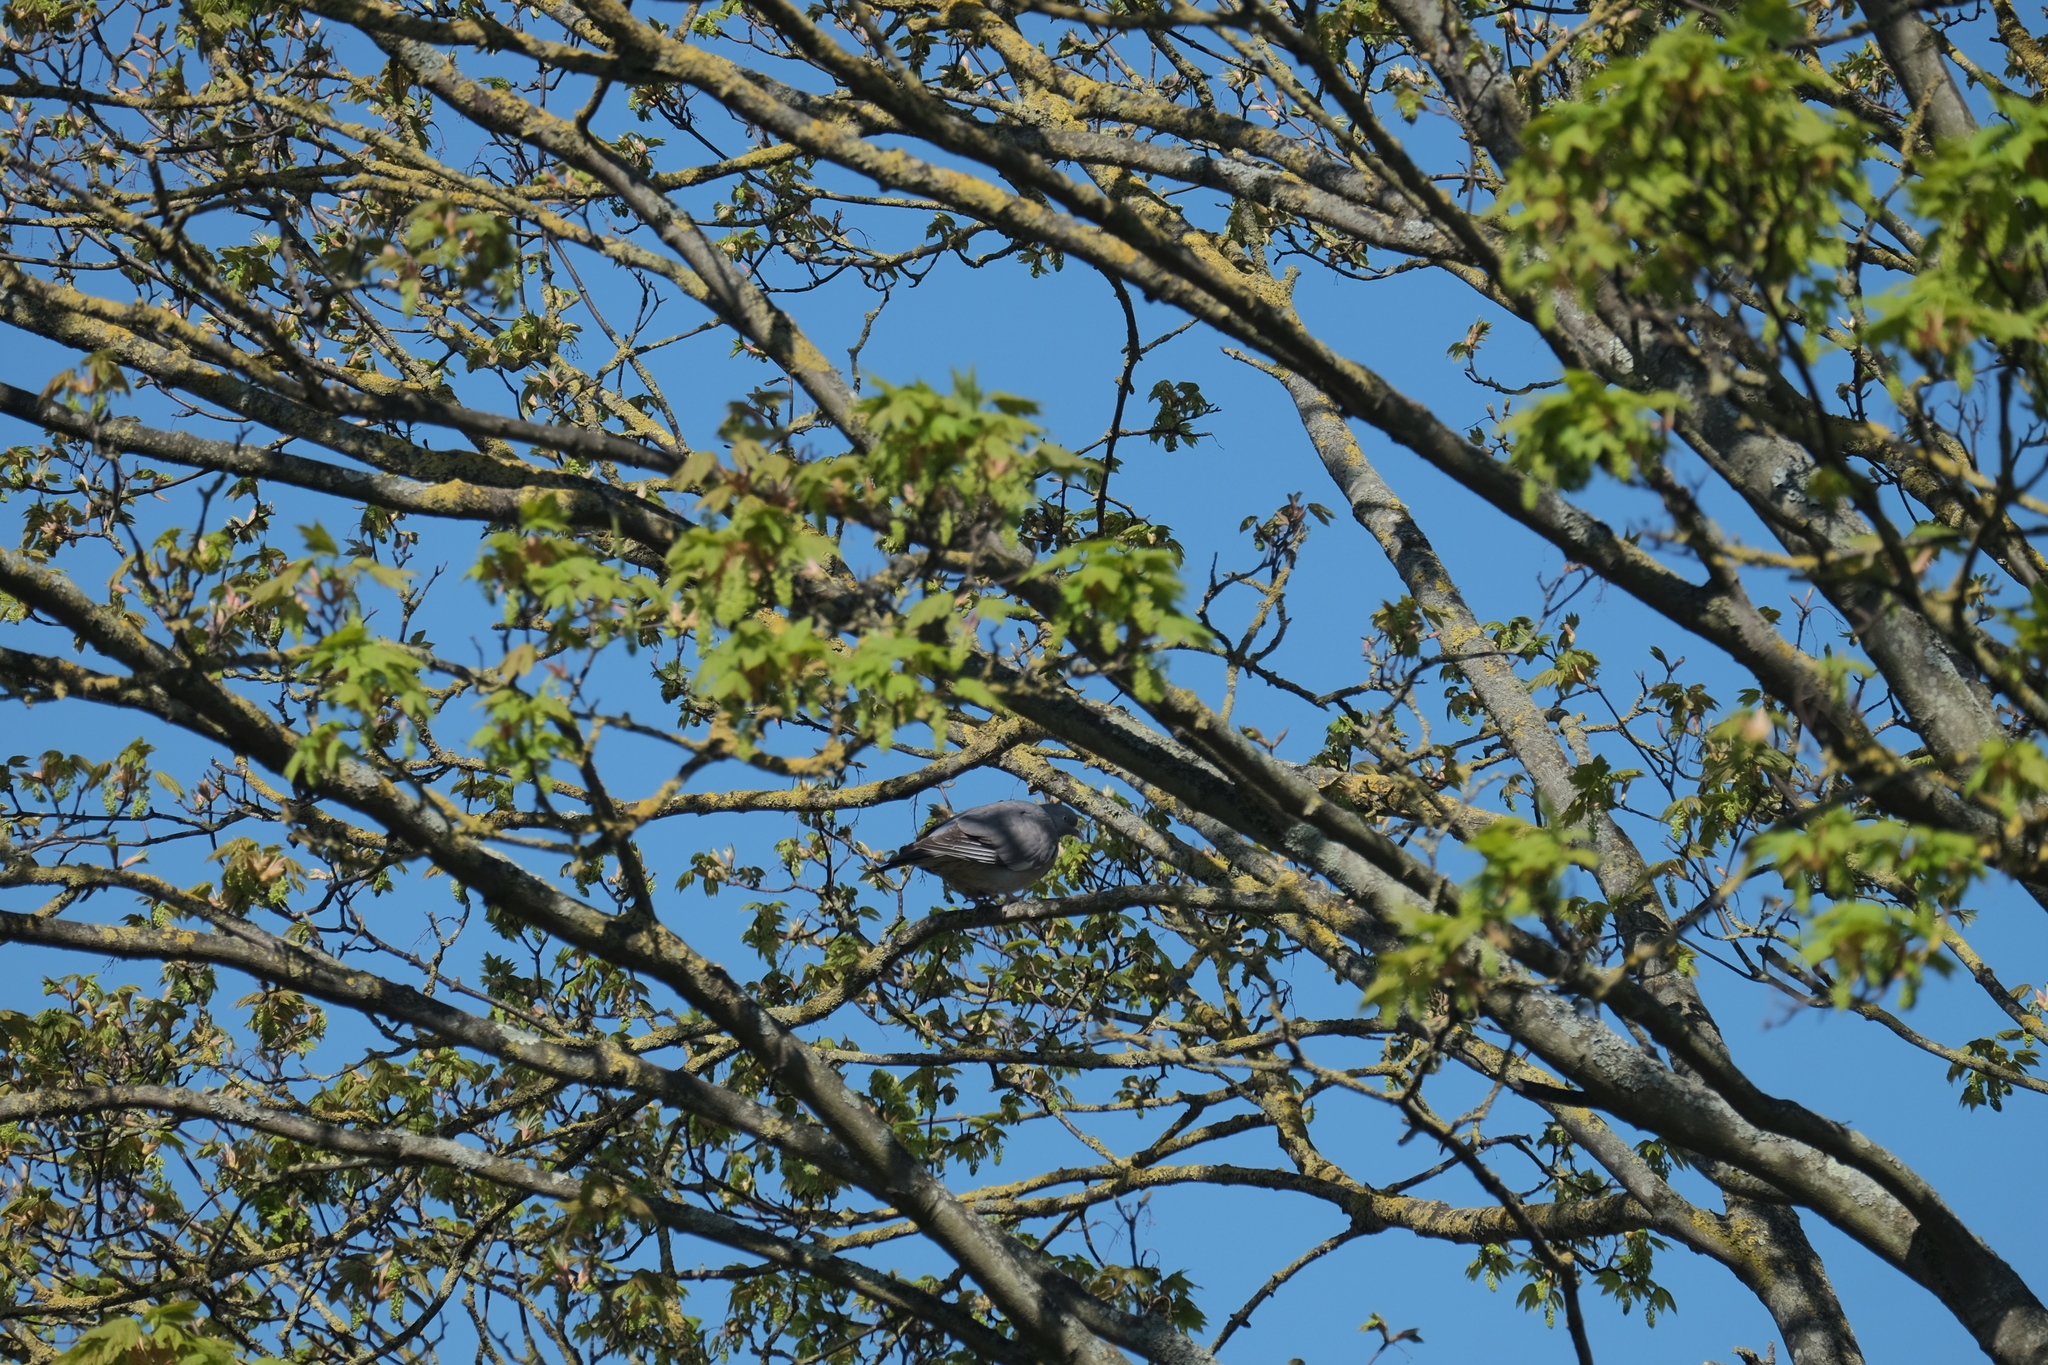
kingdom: Animalia
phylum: Chordata
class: Aves
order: Columbiformes
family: Columbidae
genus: Columba
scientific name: Columba palumbus
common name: Common wood pigeon
